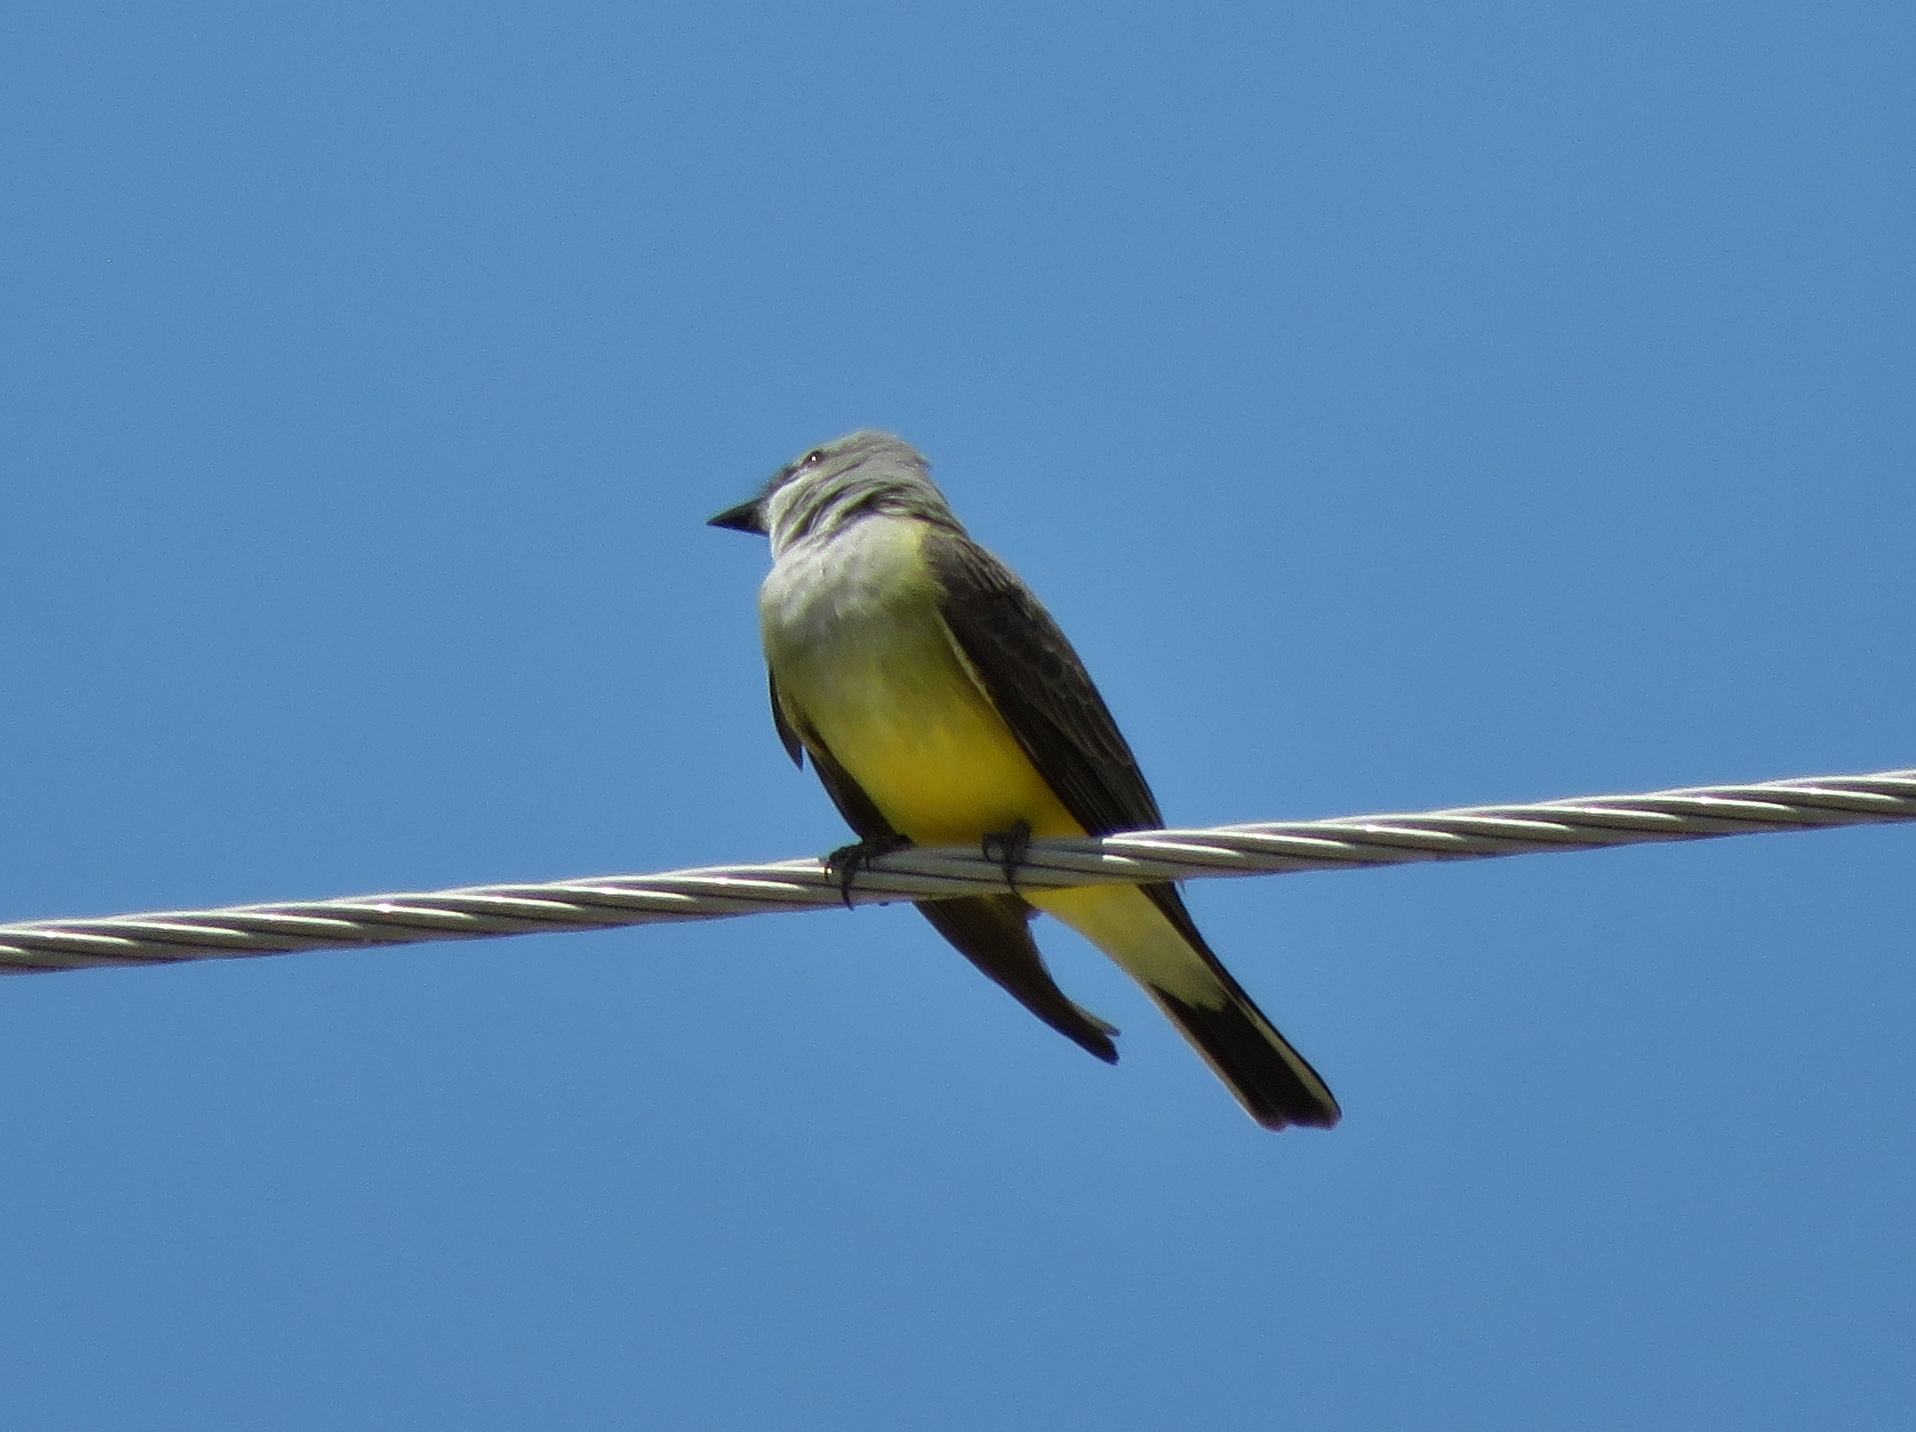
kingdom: Animalia
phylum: Chordata
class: Aves
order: Passeriformes
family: Tyrannidae
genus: Tyrannus
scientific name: Tyrannus verticalis
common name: Western kingbird
